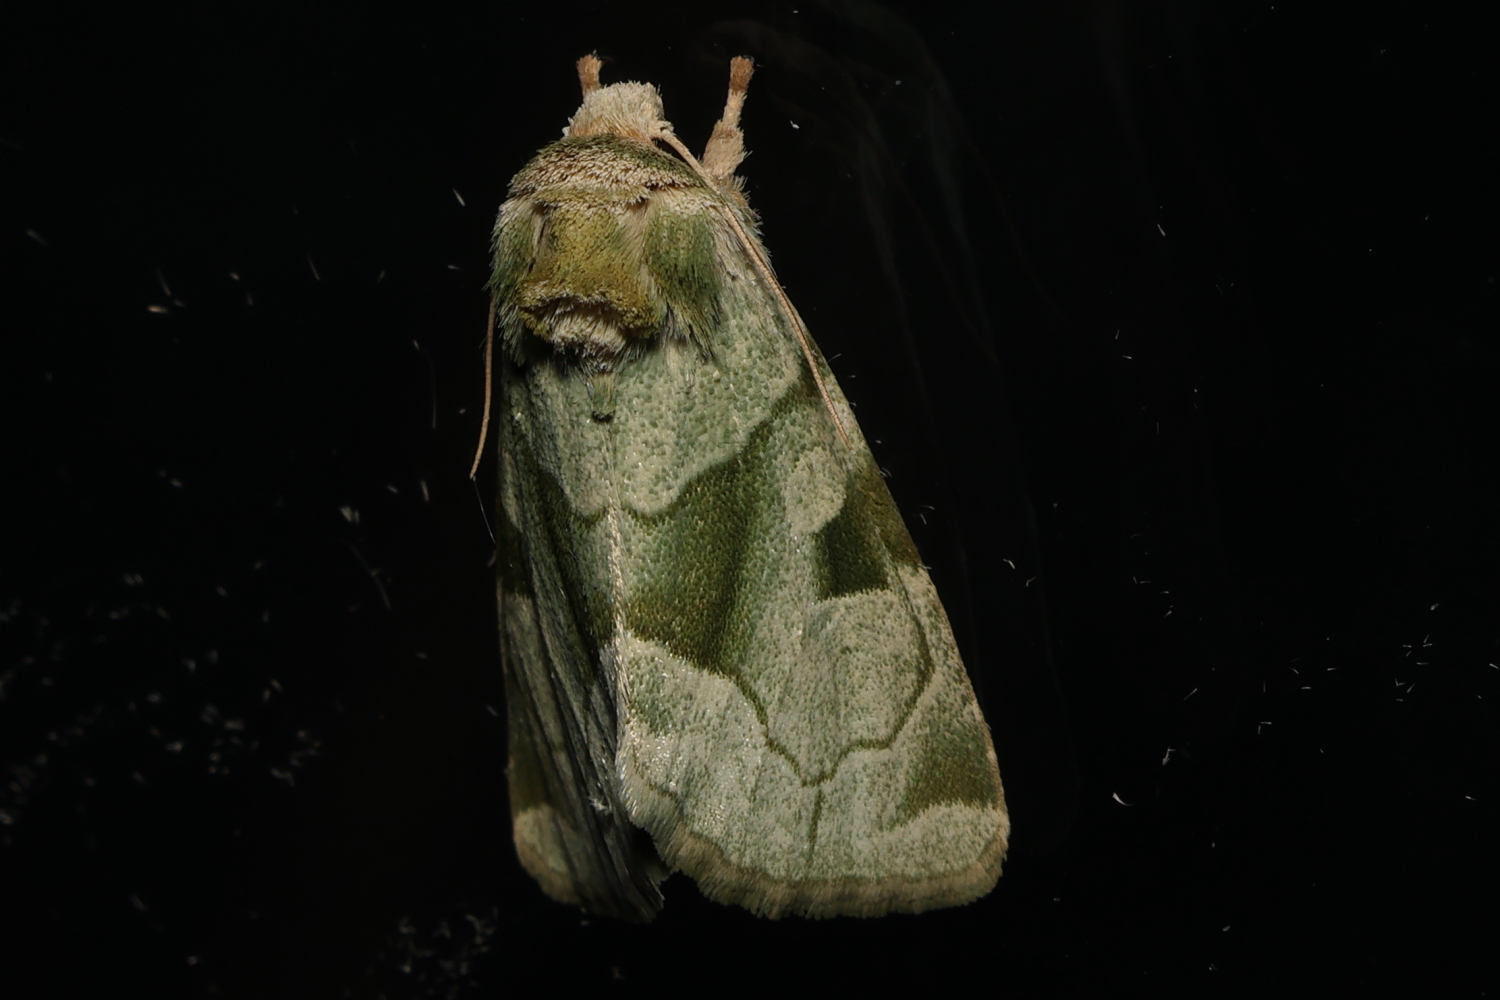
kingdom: Animalia
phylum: Arthropoda
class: Insecta
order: Lepidoptera
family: Noctuidae
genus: Oslaria
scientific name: Oslaria viridifera
